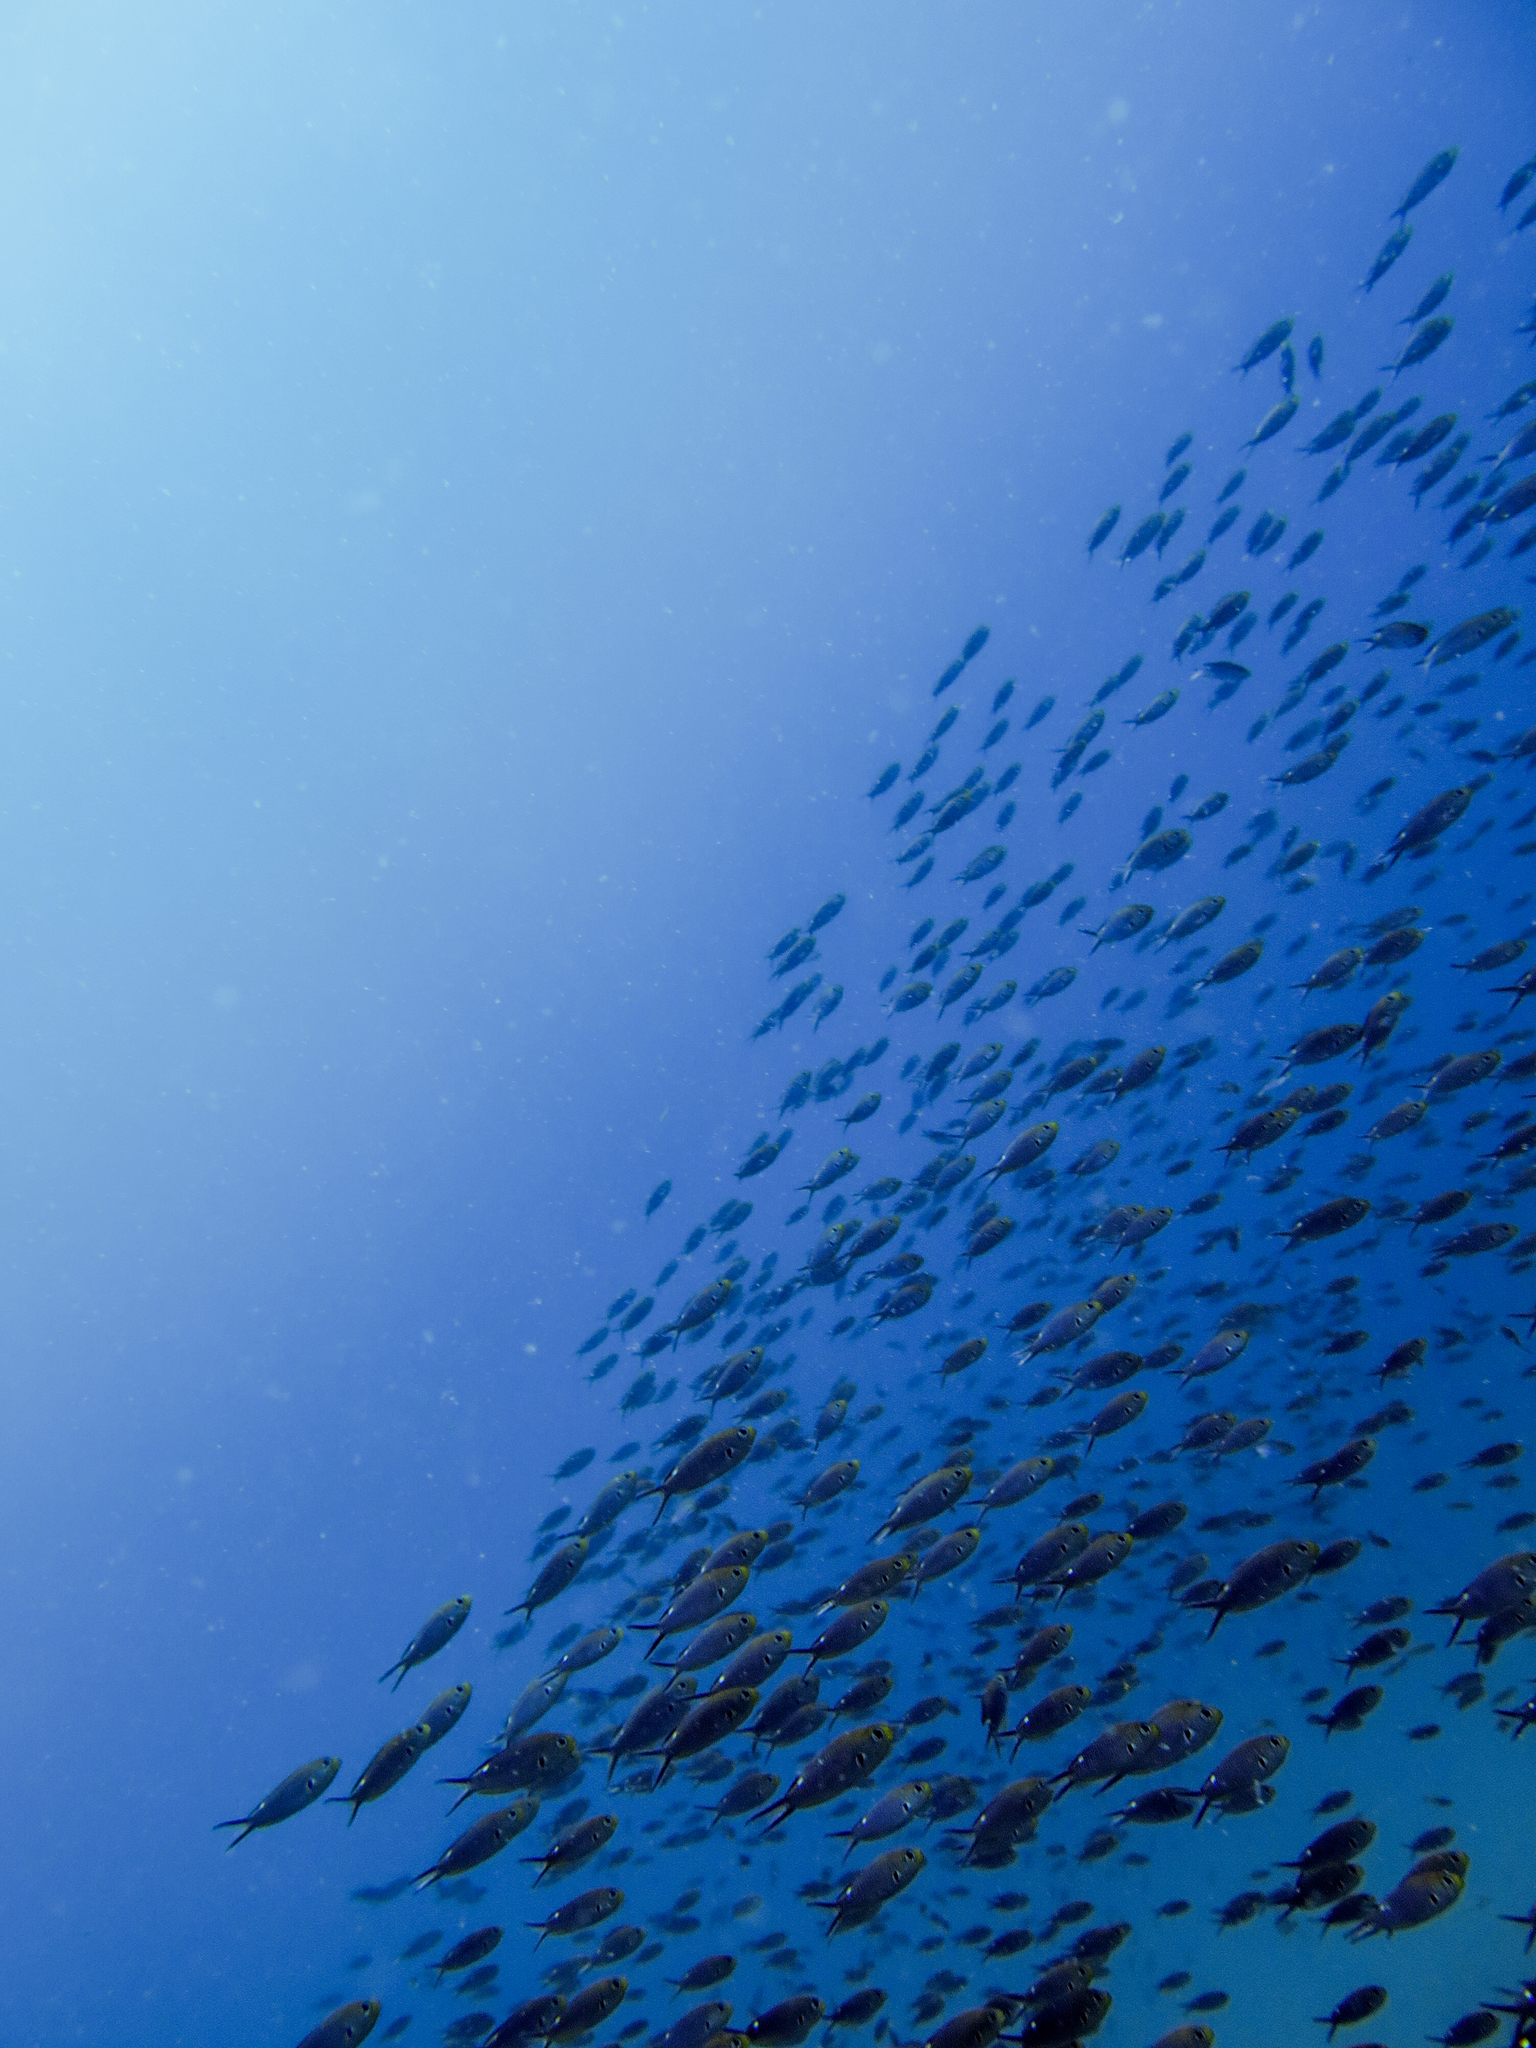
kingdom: Animalia
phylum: Chordata
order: Perciformes
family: Pomacentridae
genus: Chromis
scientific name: Chromis atrilobata
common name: Scissortail damselfish
